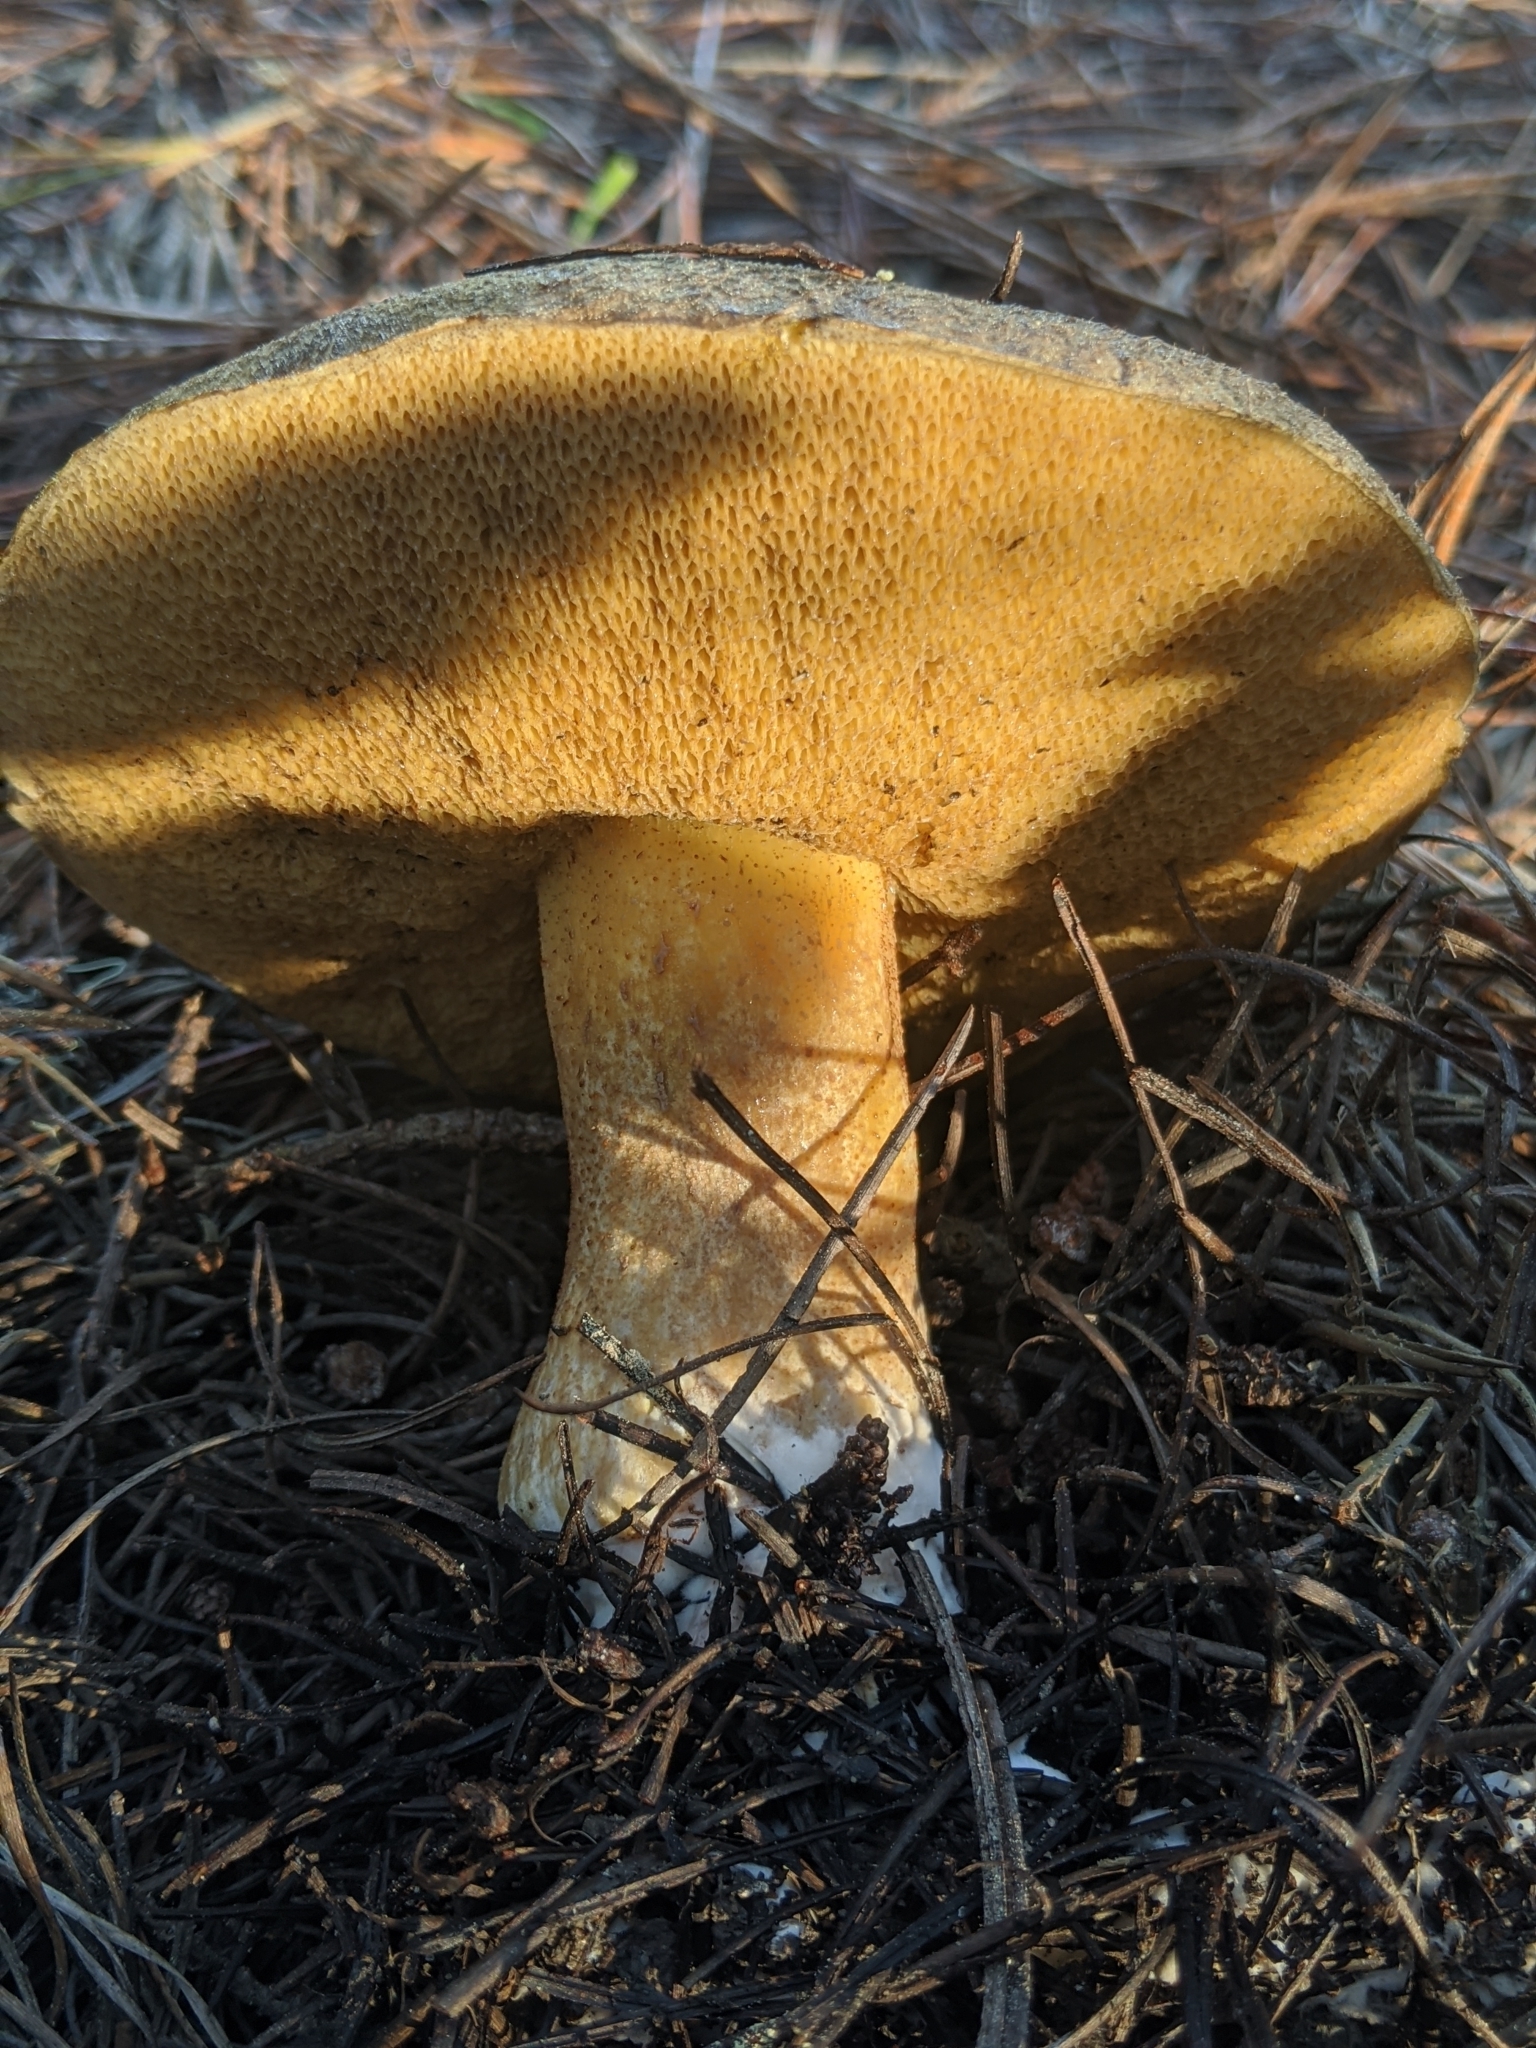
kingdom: Fungi
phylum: Basidiomycota
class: Agaricomycetes
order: Boletales
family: Suillaceae
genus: Suillus
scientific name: Suillus fuscotomentosus
